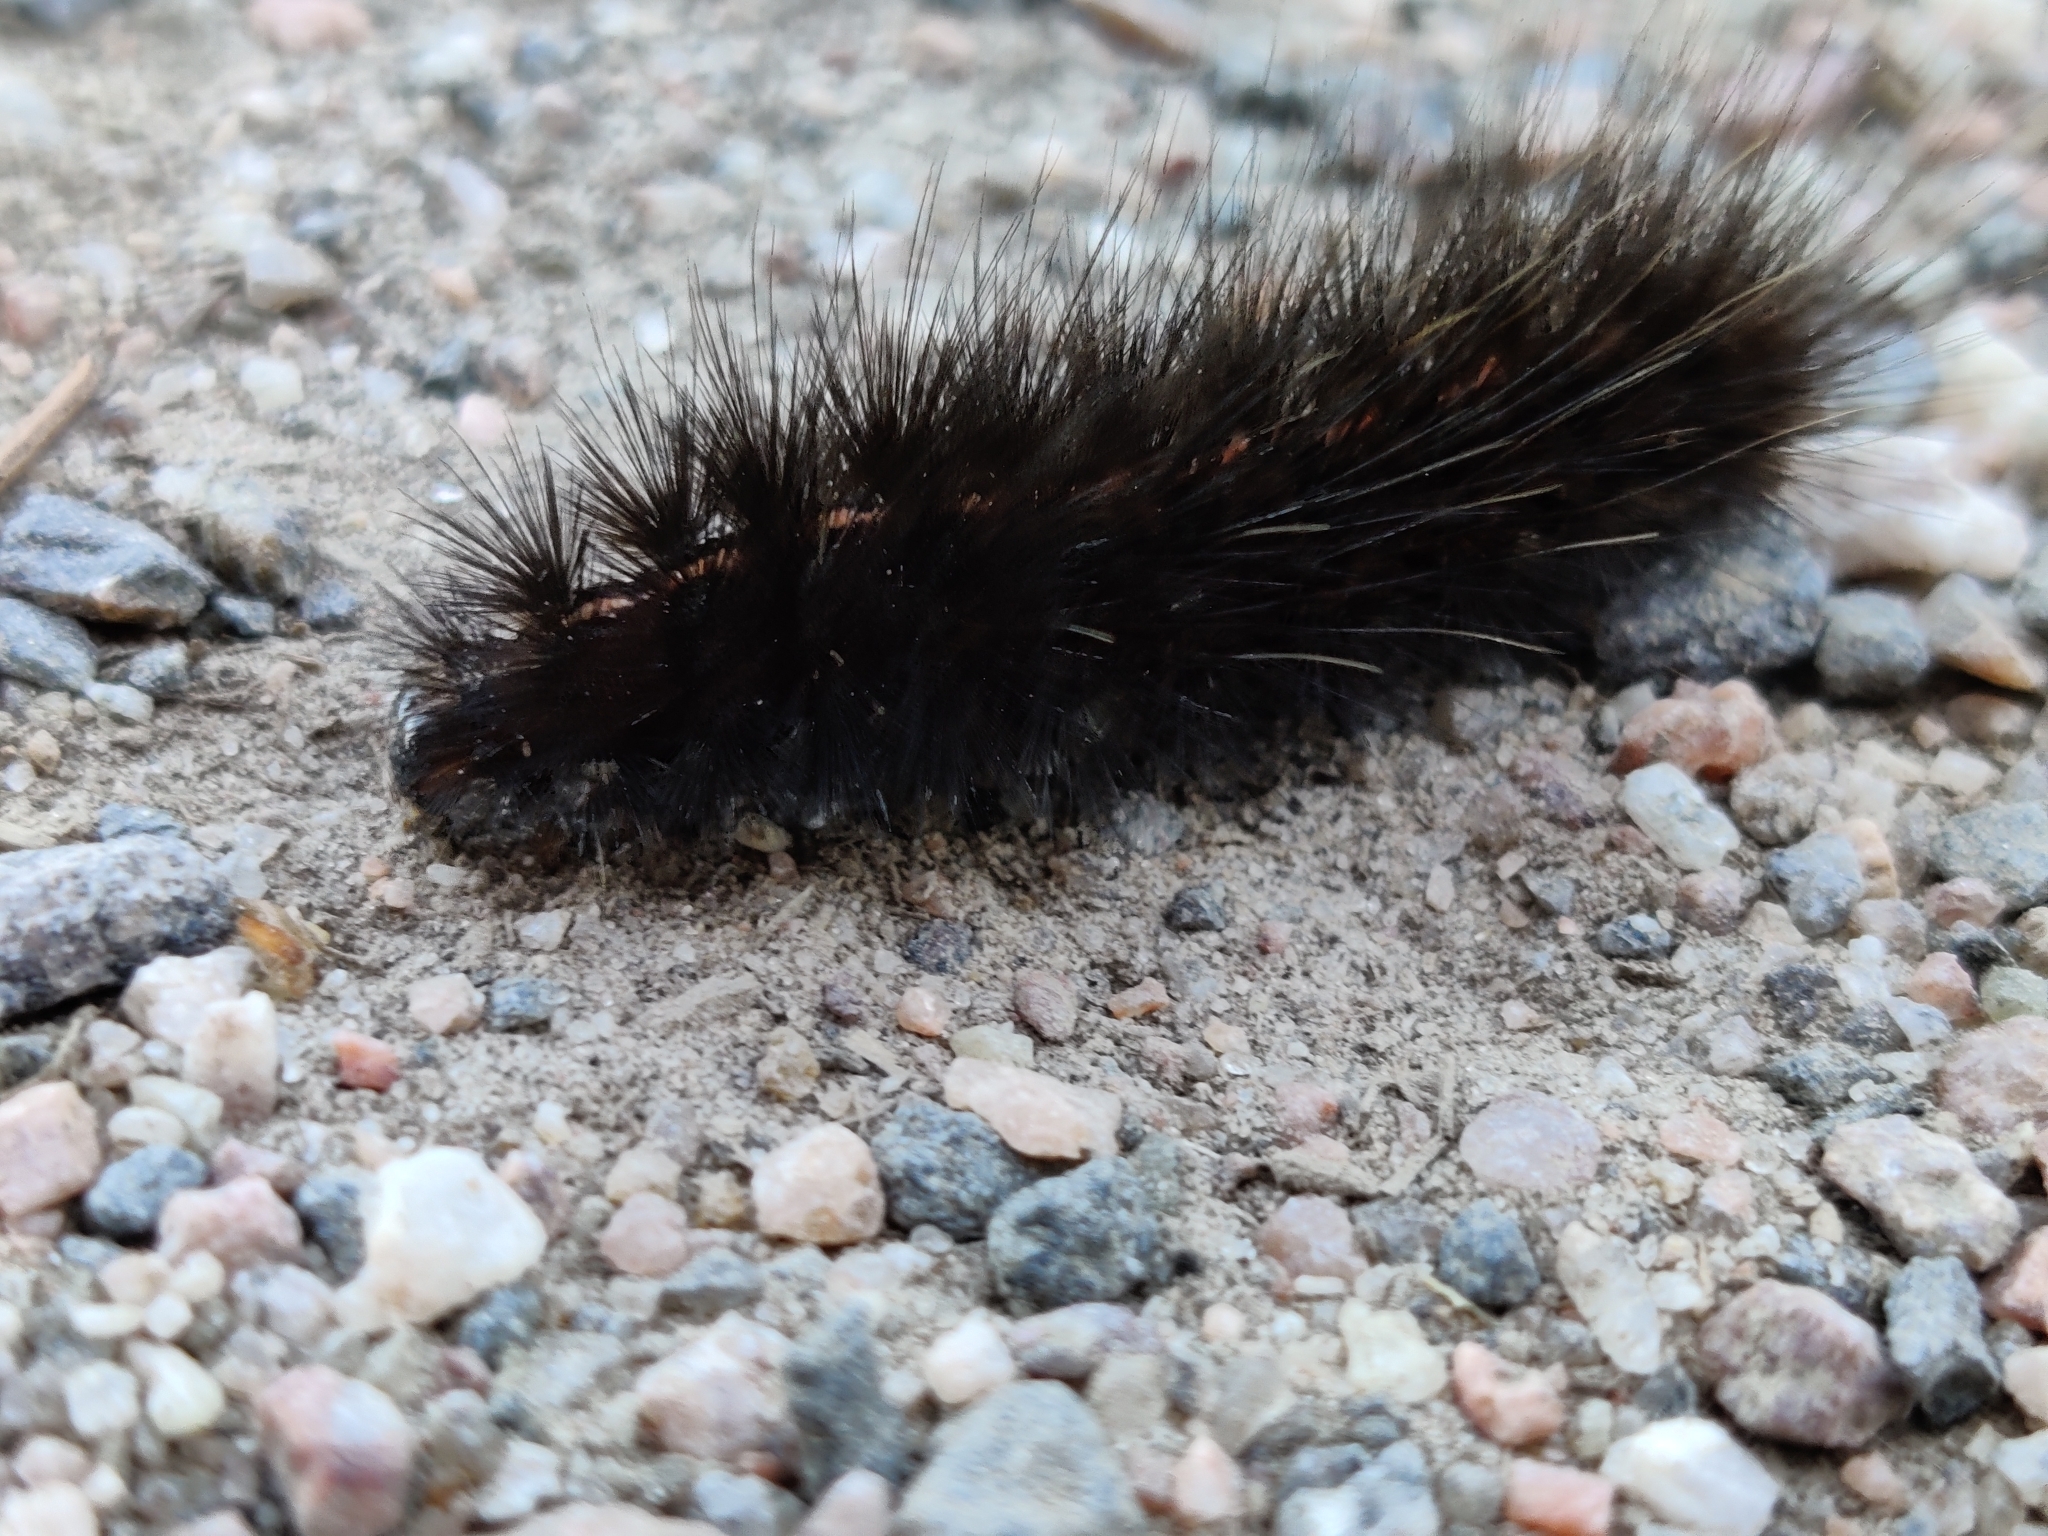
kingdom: Animalia
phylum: Arthropoda
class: Insecta
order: Lepidoptera
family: Erebidae
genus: Spilosoma
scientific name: Spilosoma lubricipeda
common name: White ermine
